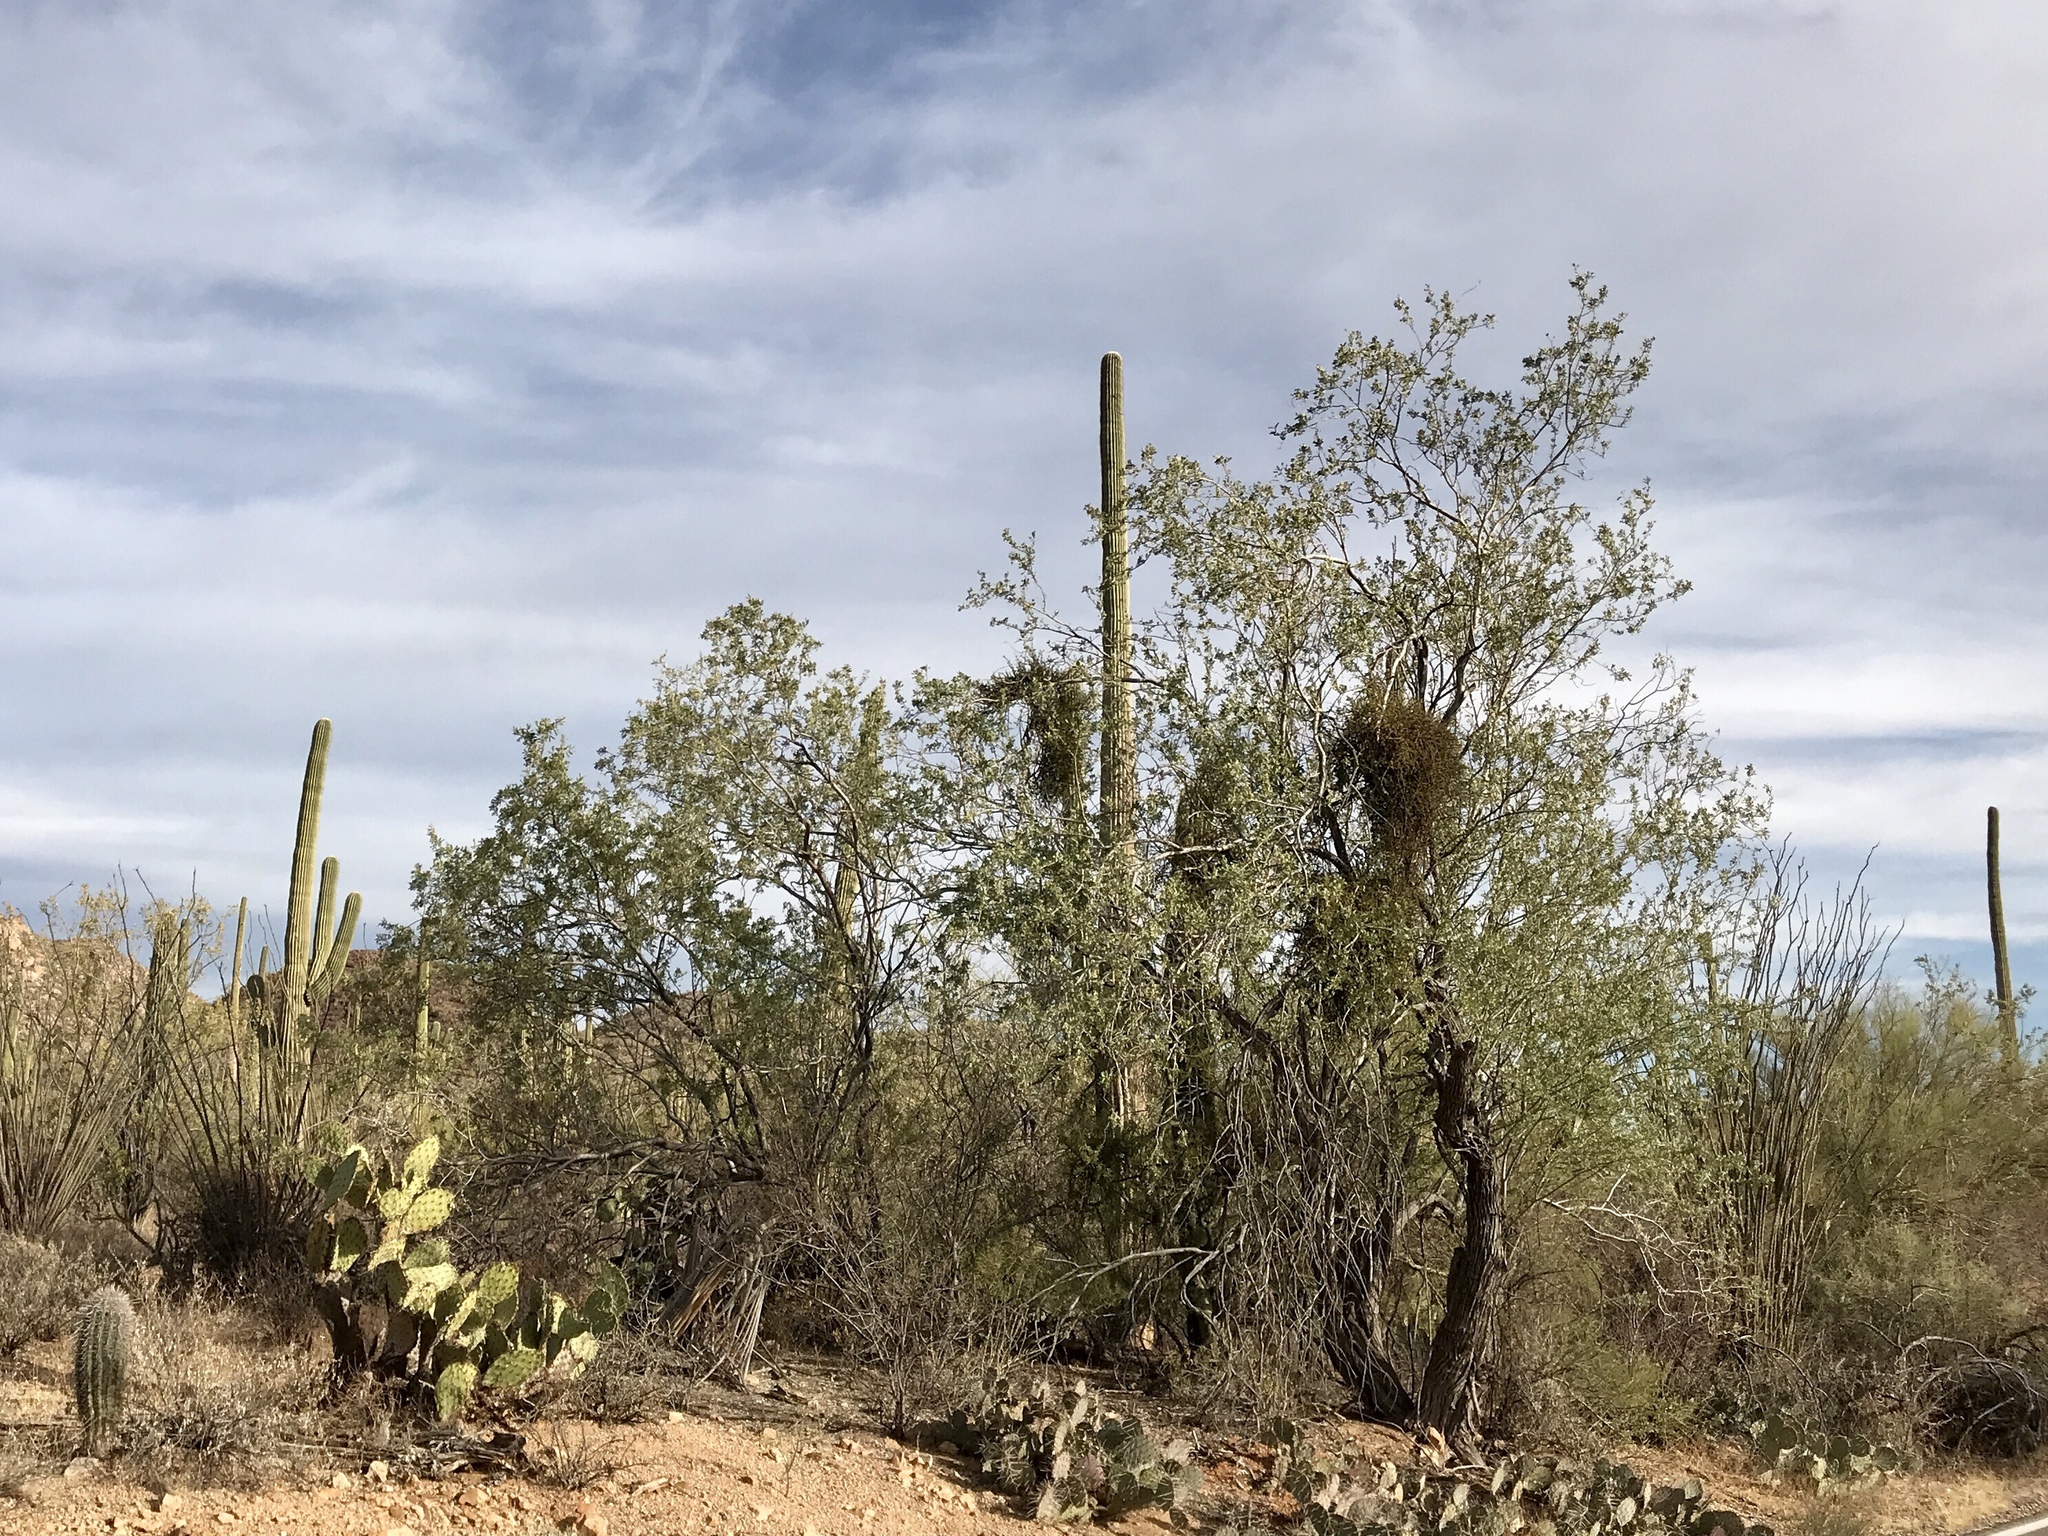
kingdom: Plantae
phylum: Tracheophyta
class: Magnoliopsida
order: Fabales
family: Fabaceae
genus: Olneya
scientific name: Olneya tesota
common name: Desert ironwood
